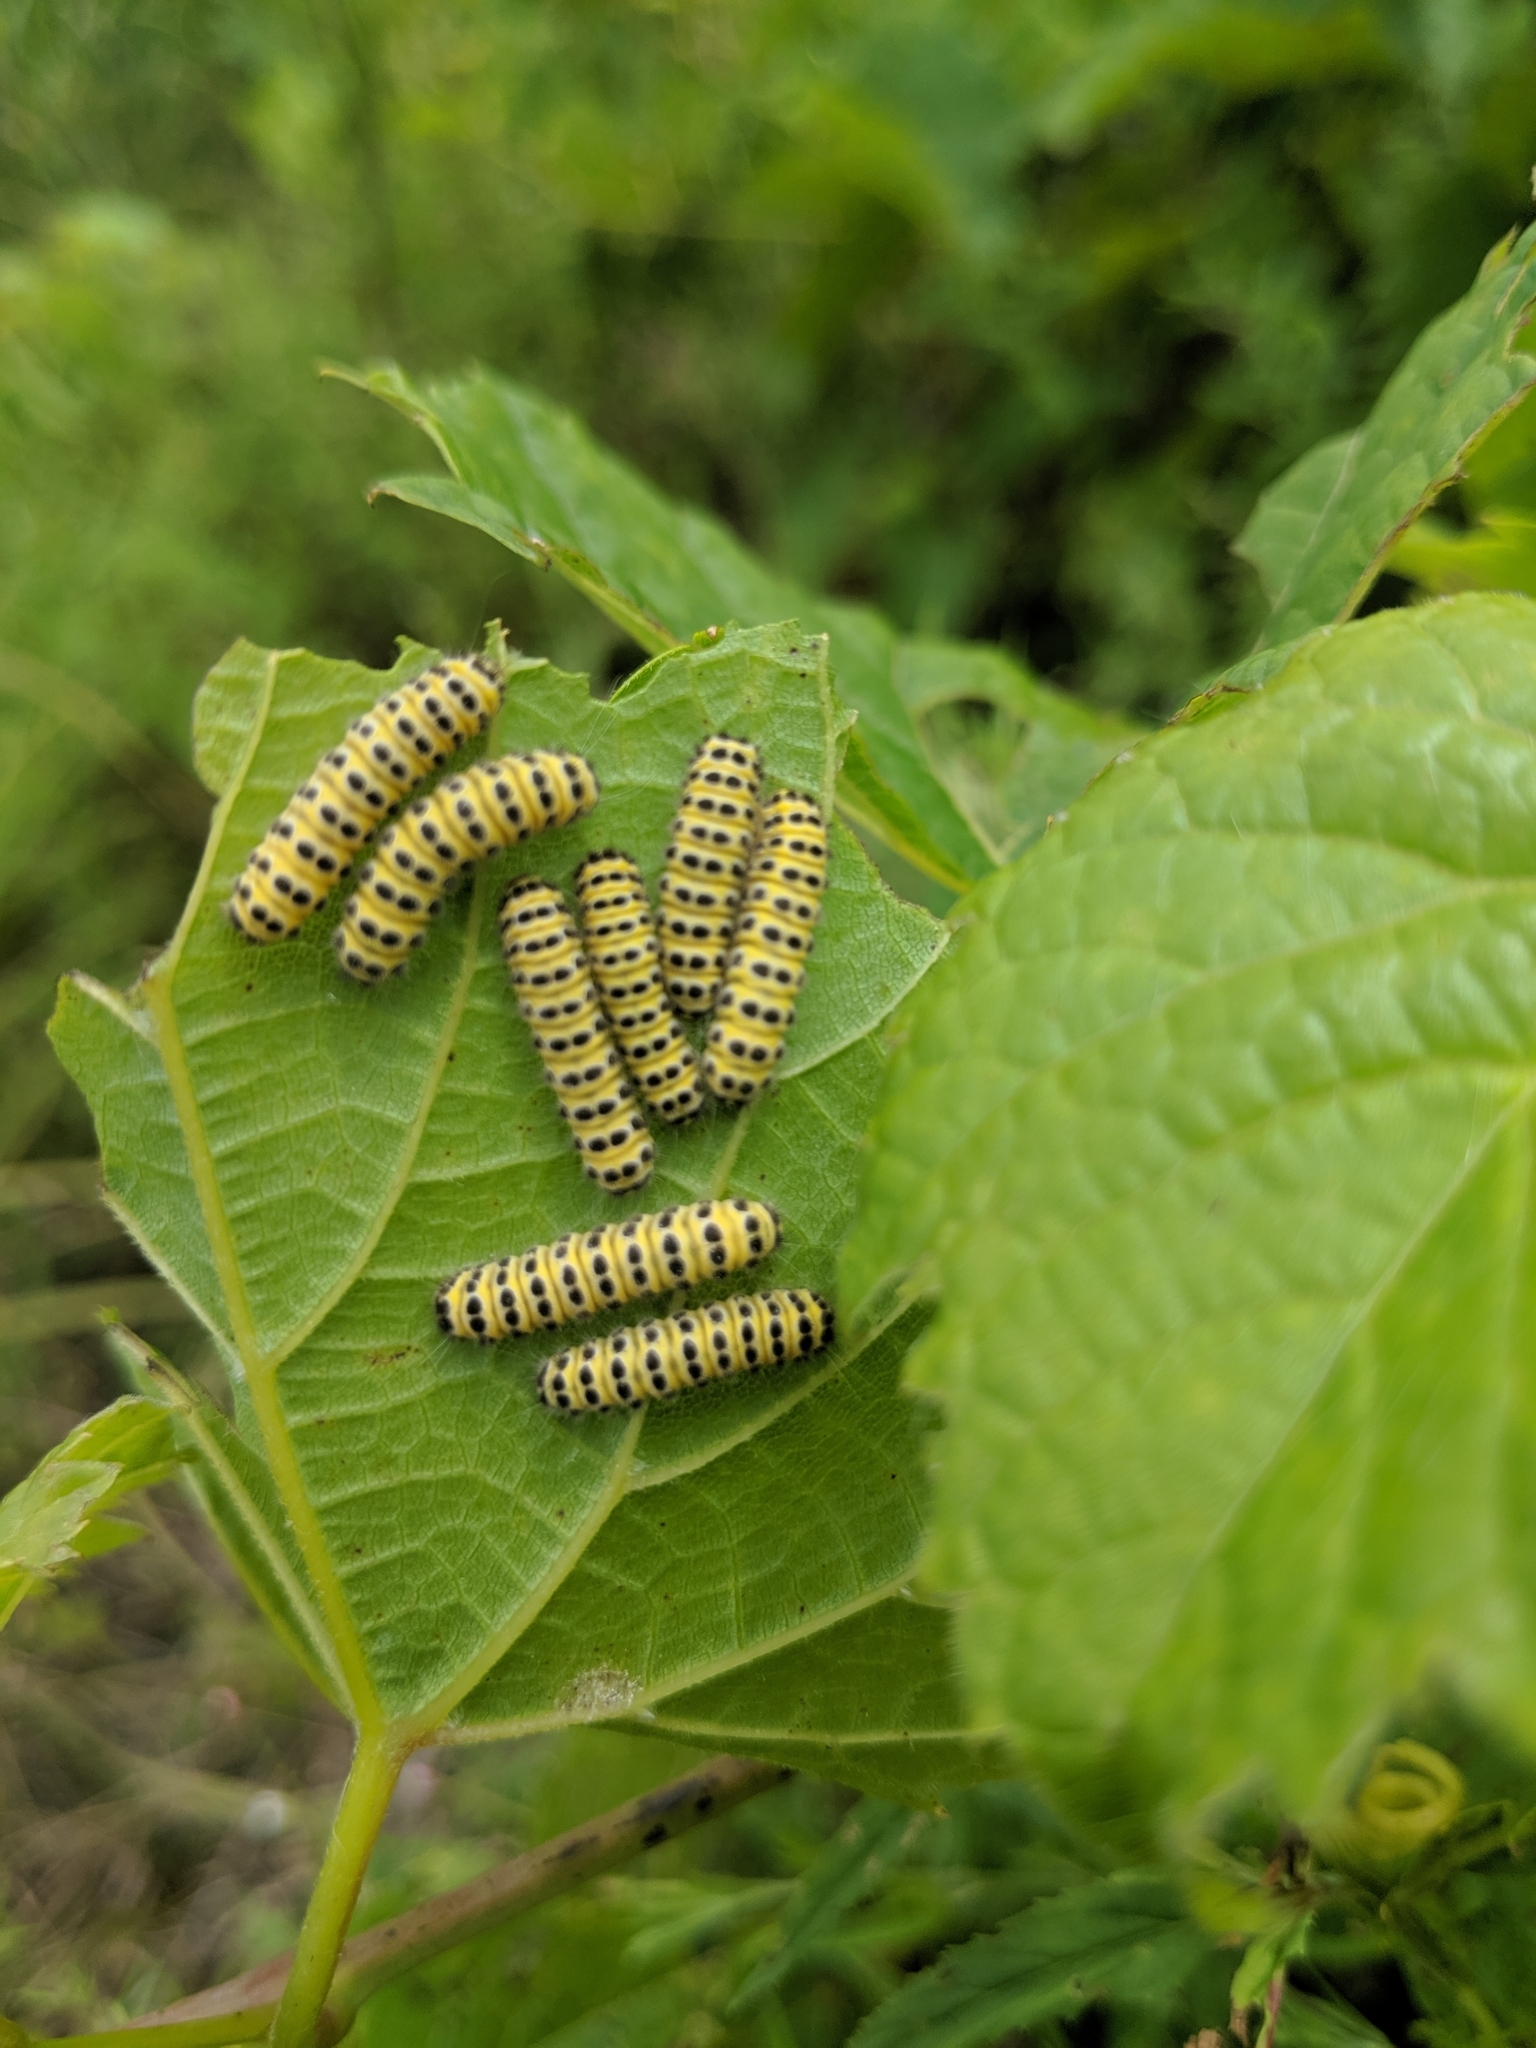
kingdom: Animalia
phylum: Arthropoda
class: Insecta
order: Lepidoptera
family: Zygaenidae
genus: Harrisina
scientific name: Harrisina americana
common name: Grapeleaf skeletonizer moth
